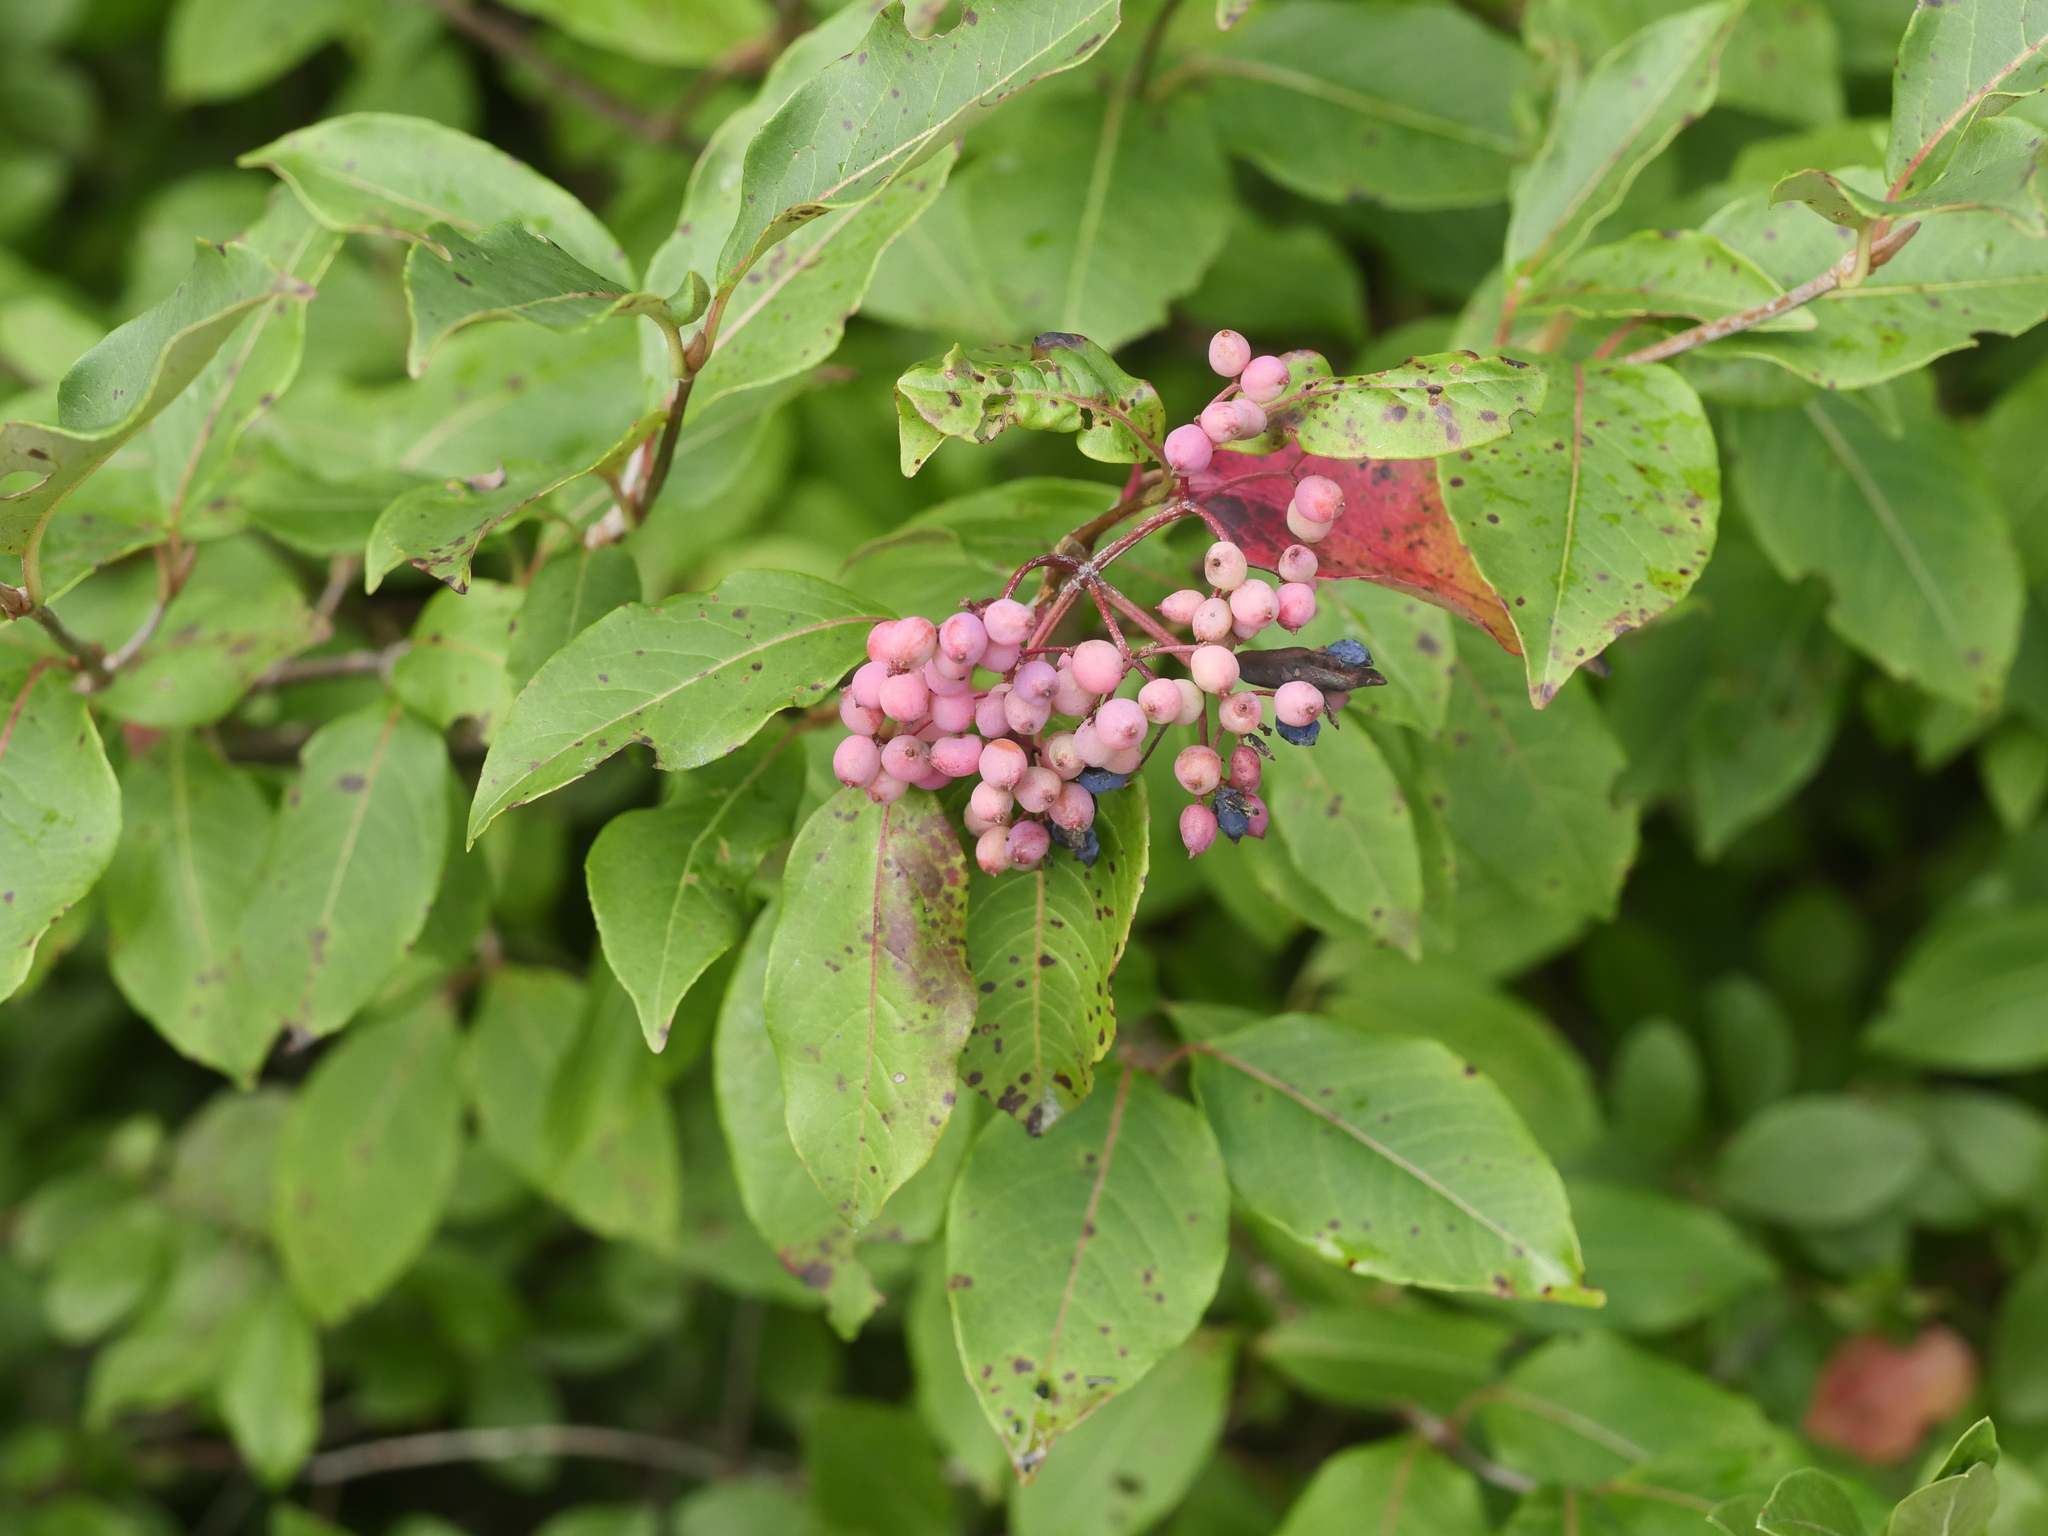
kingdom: Plantae
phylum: Tracheophyta
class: Magnoliopsida
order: Dipsacales
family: Viburnaceae
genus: Viburnum
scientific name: Viburnum cassinoides
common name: Swamp haw
